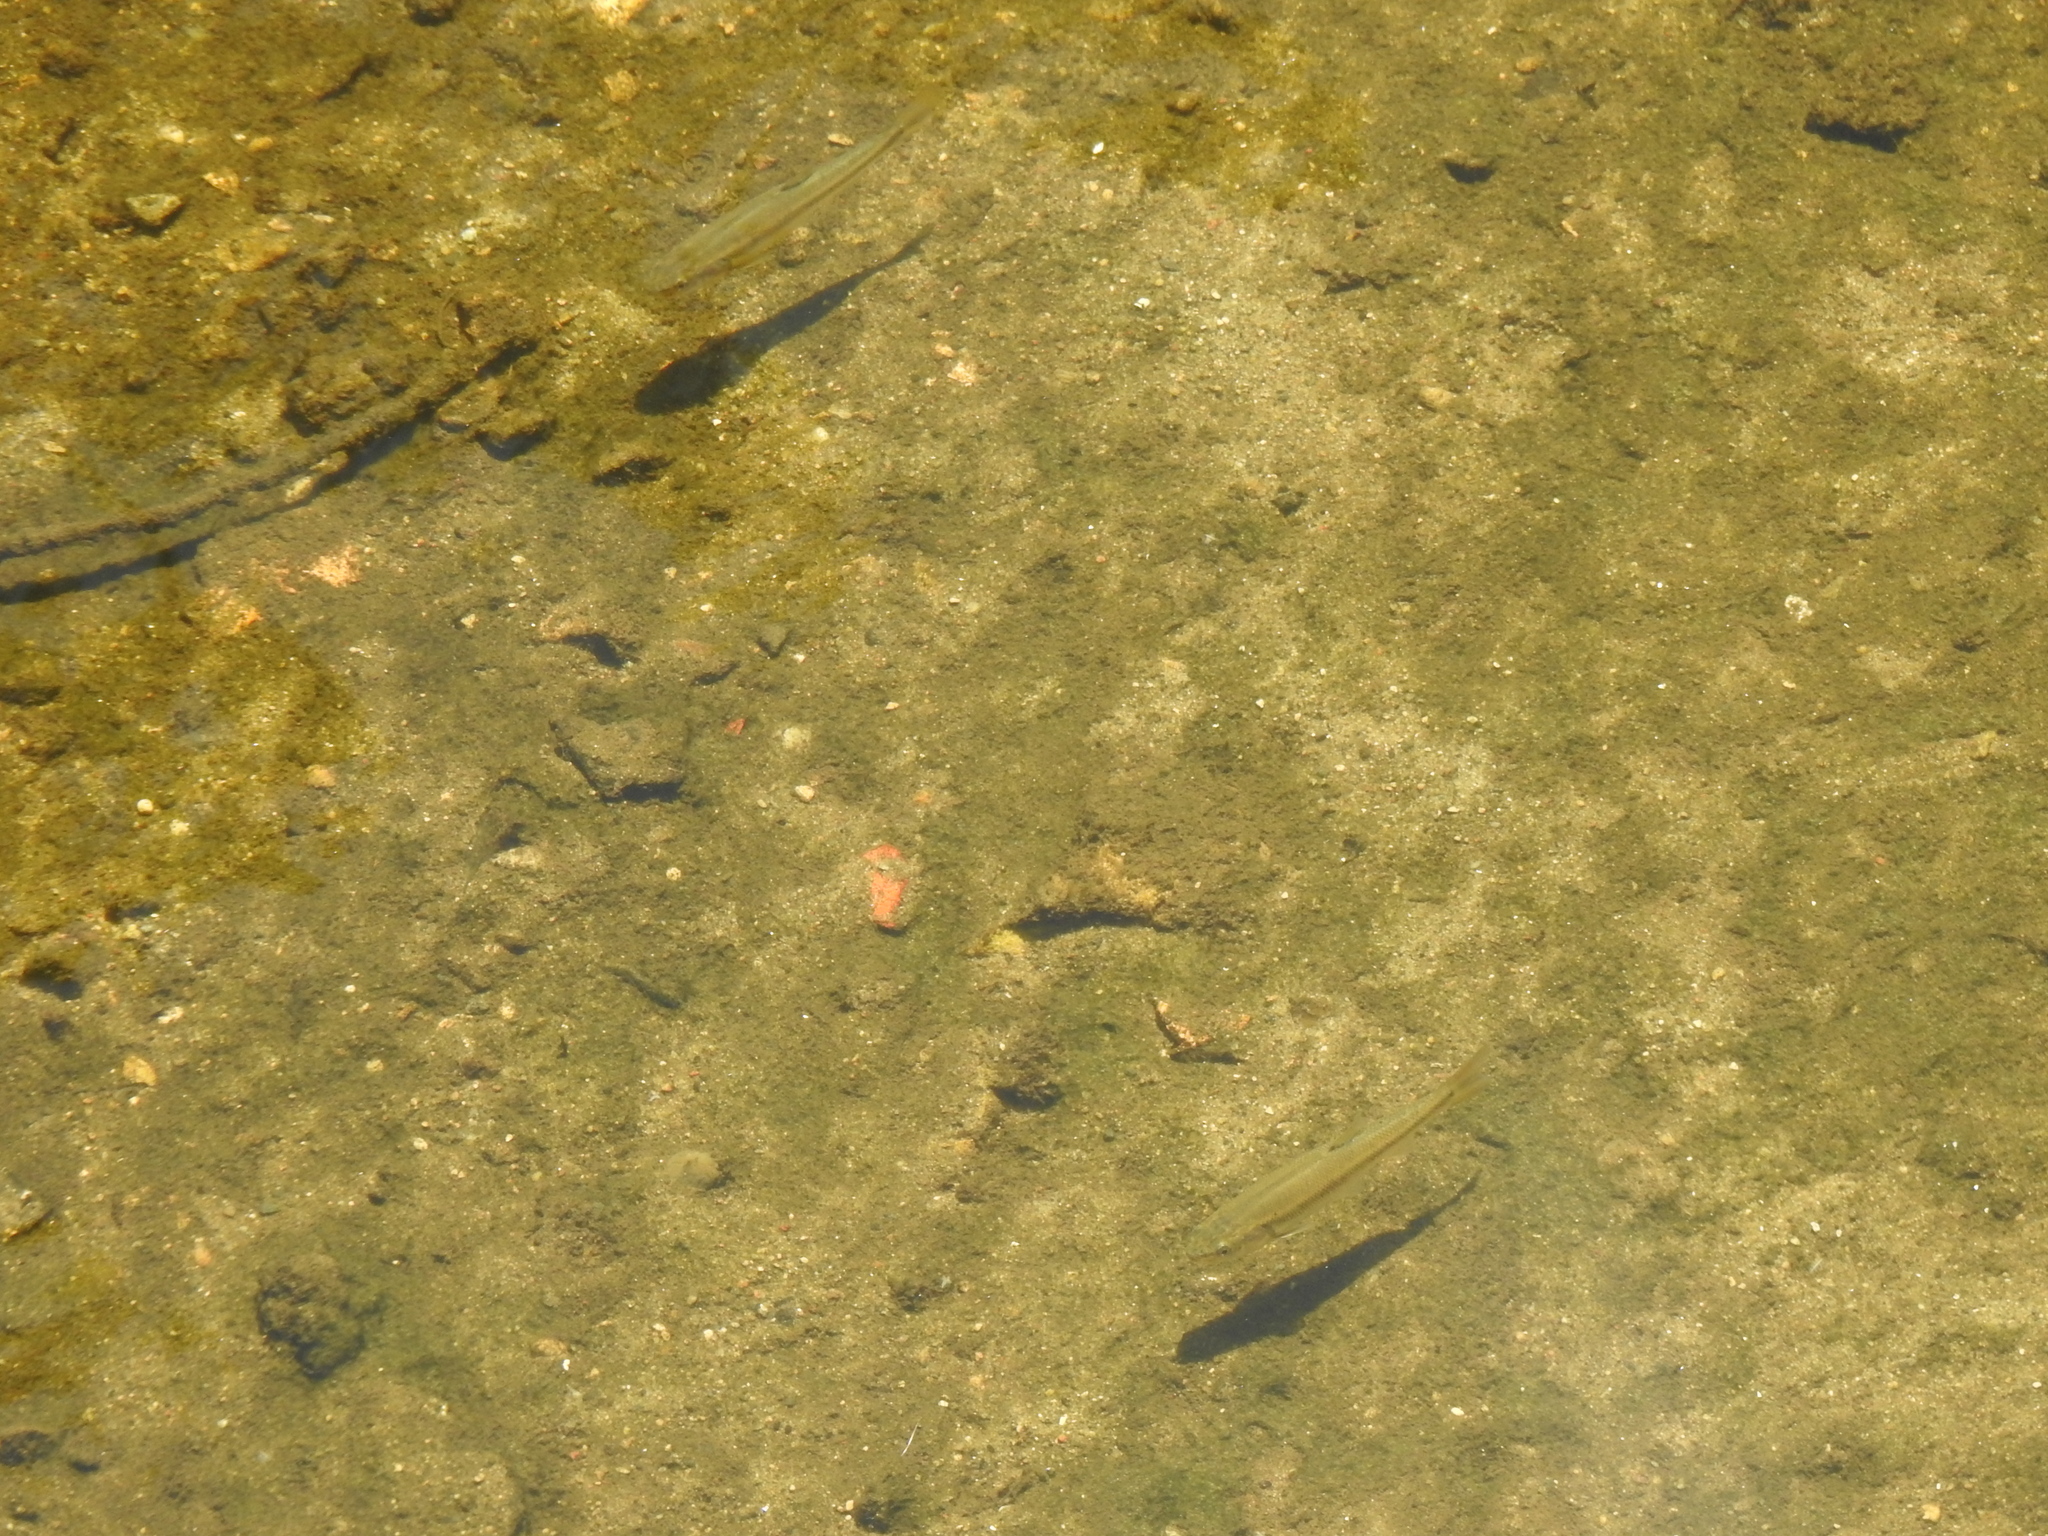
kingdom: Animalia
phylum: Chordata
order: Cypriniformes
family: Cyprinidae
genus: Semotilus
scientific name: Semotilus atromaculatus
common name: Creek chub
